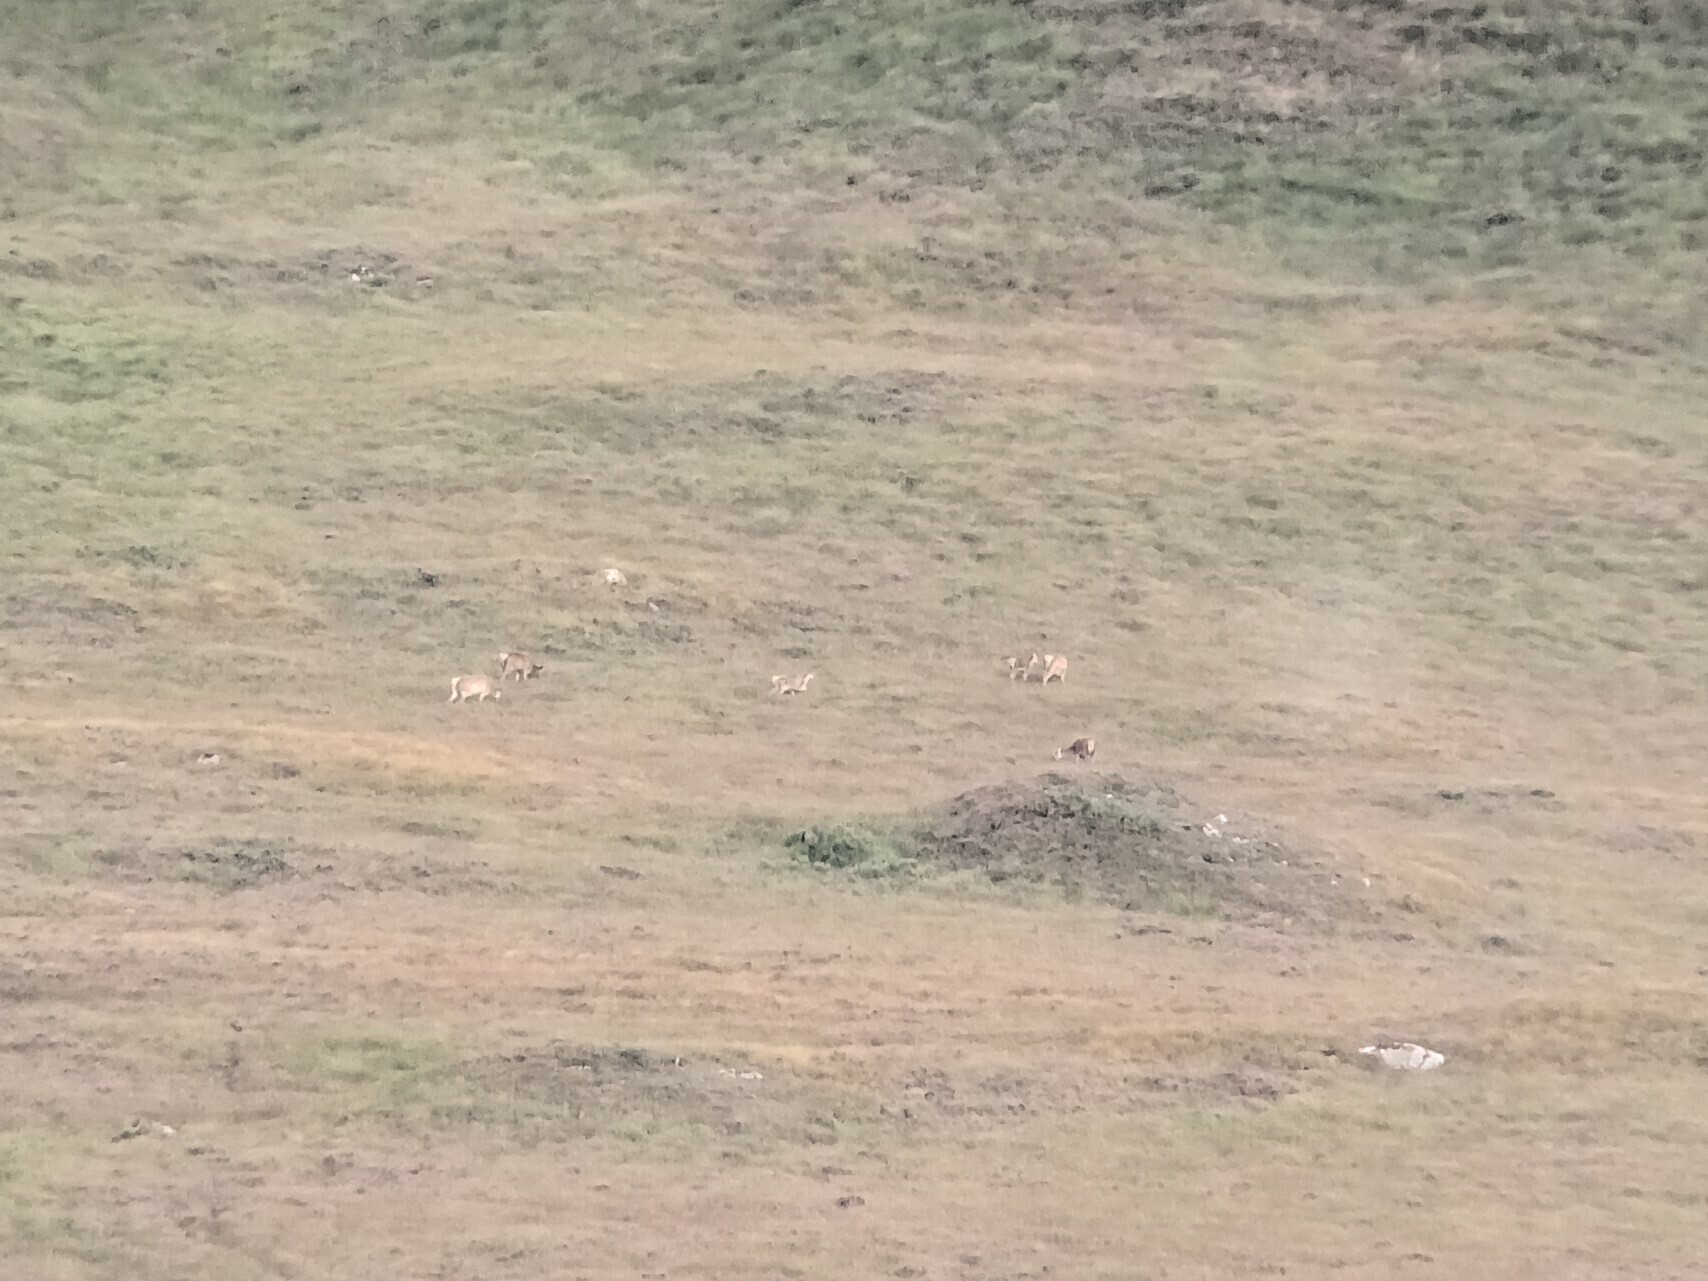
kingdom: Animalia
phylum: Chordata
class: Mammalia
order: Artiodactyla
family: Cervidae
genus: Cervus
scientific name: Cervus elaphus
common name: Red deer
